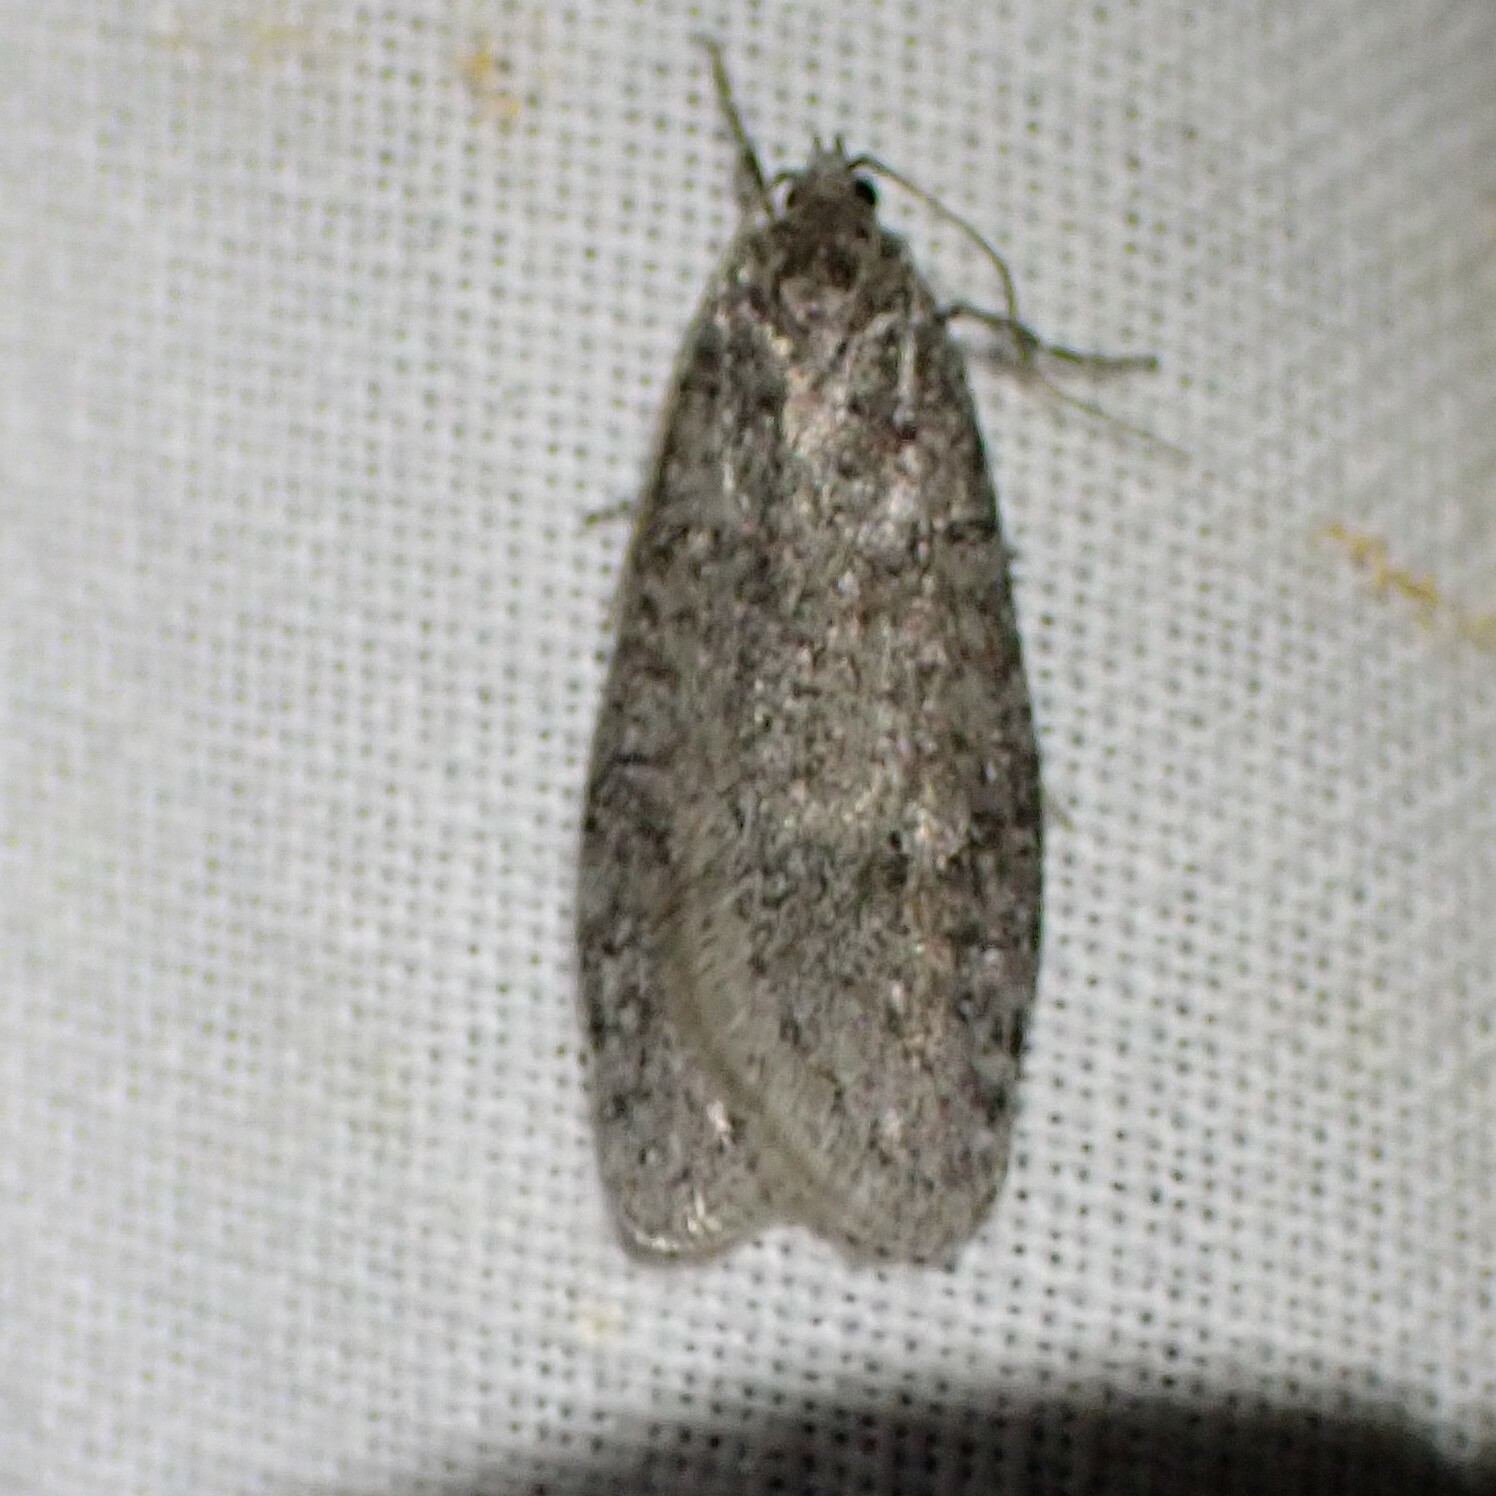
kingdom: Animalia
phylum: Arthropoda
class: Insecta
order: Lepidoptera
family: Depressariidae
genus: Semioscopis
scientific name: Semioscopis inornata
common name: Poplar micromoth
